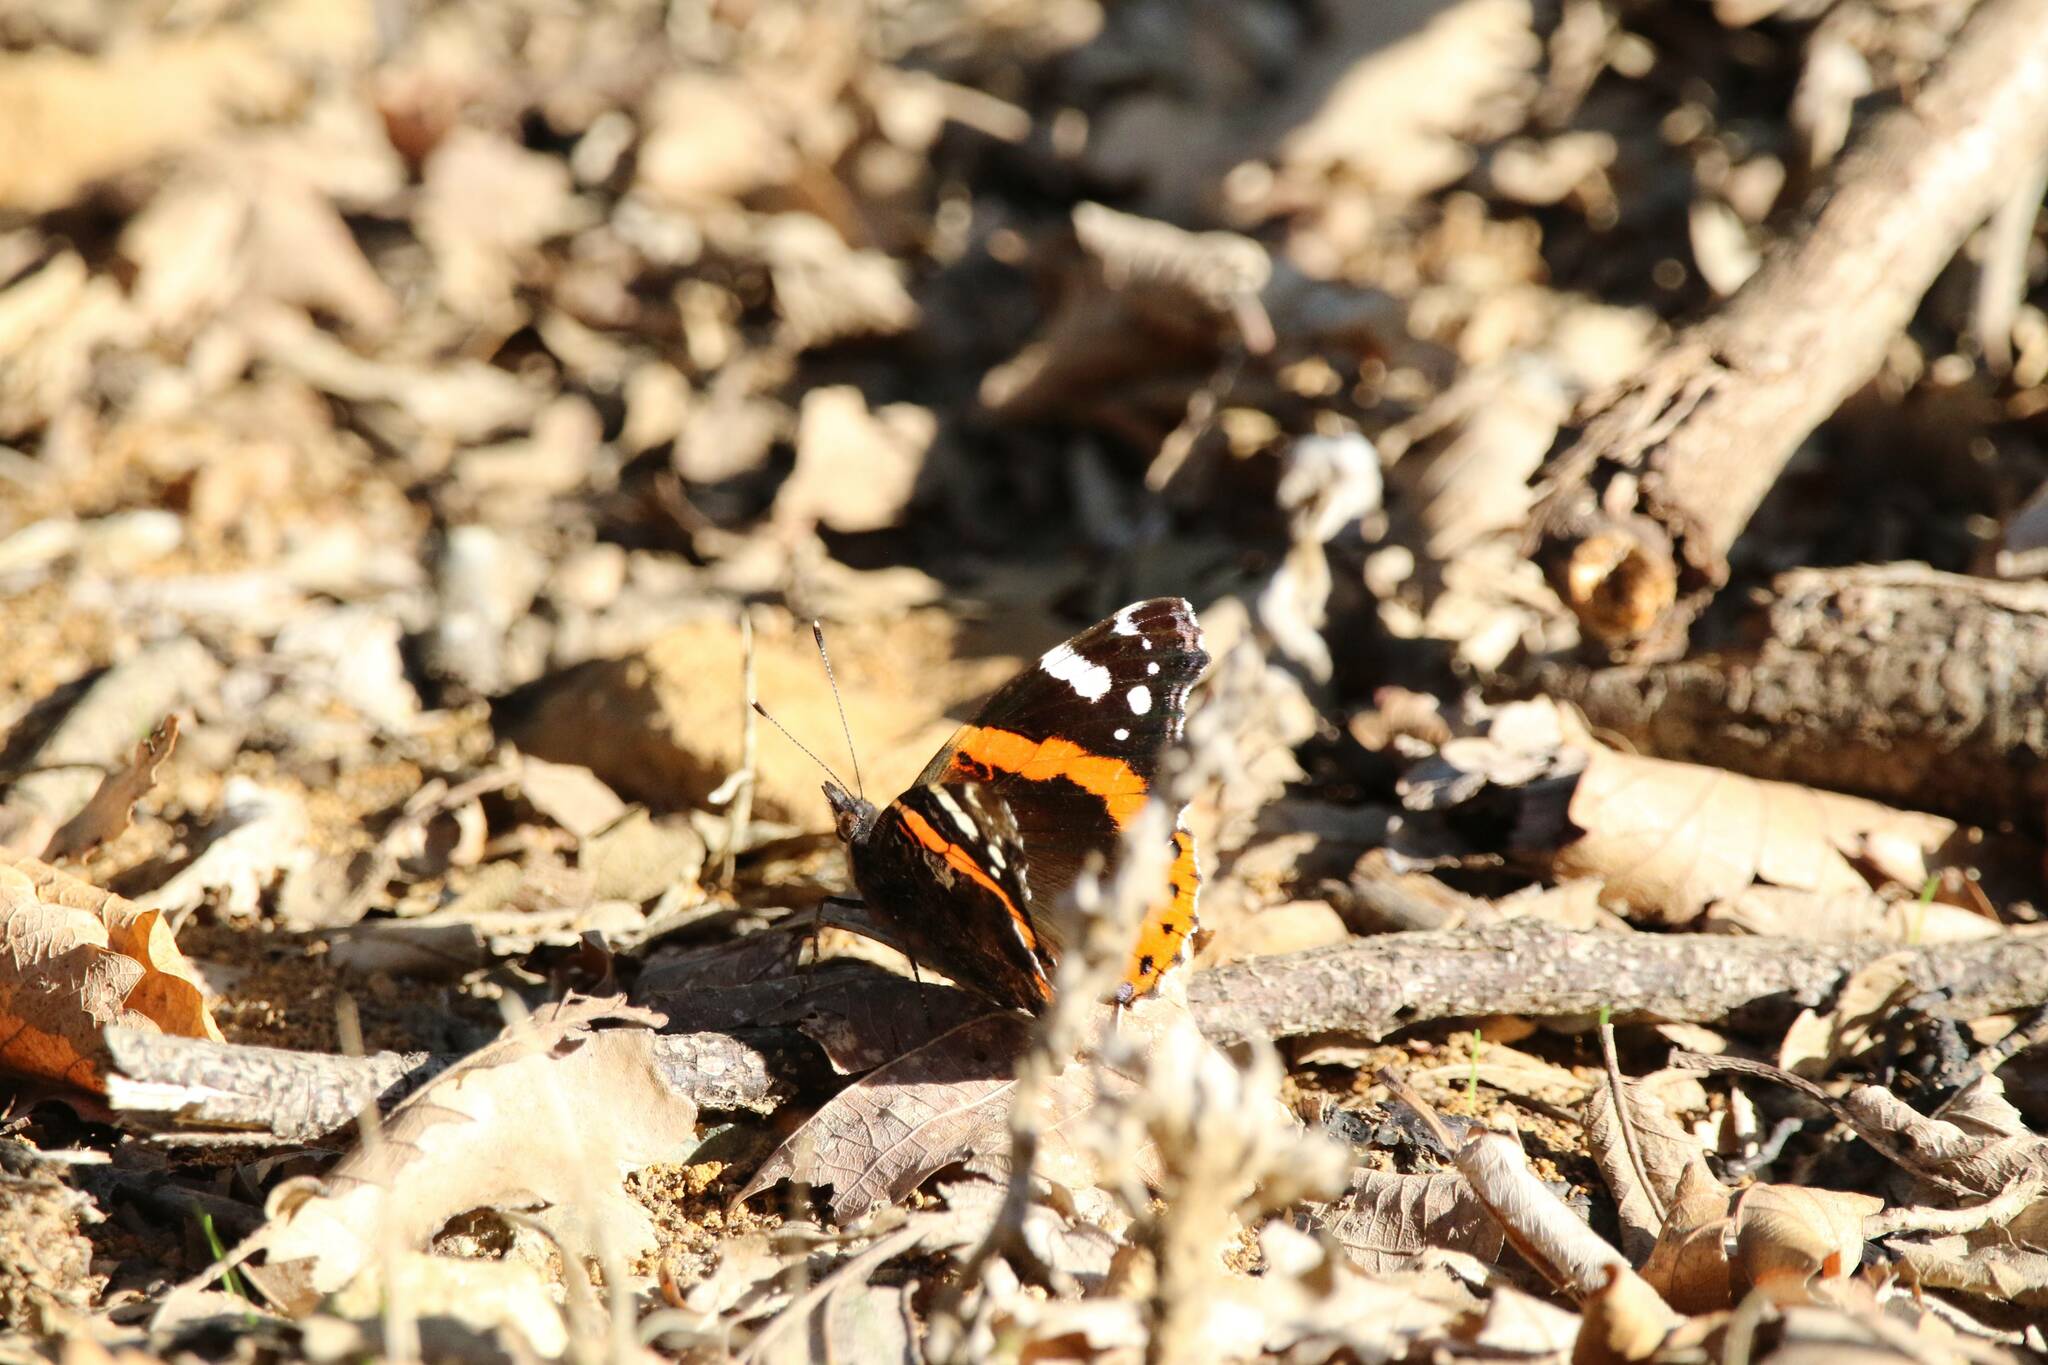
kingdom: Animalia
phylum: Arthropoda
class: Insecta
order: Lepidoptera
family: Nymphalidae
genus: Vanessa
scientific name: Vanessa atalanta
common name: Red admiral
